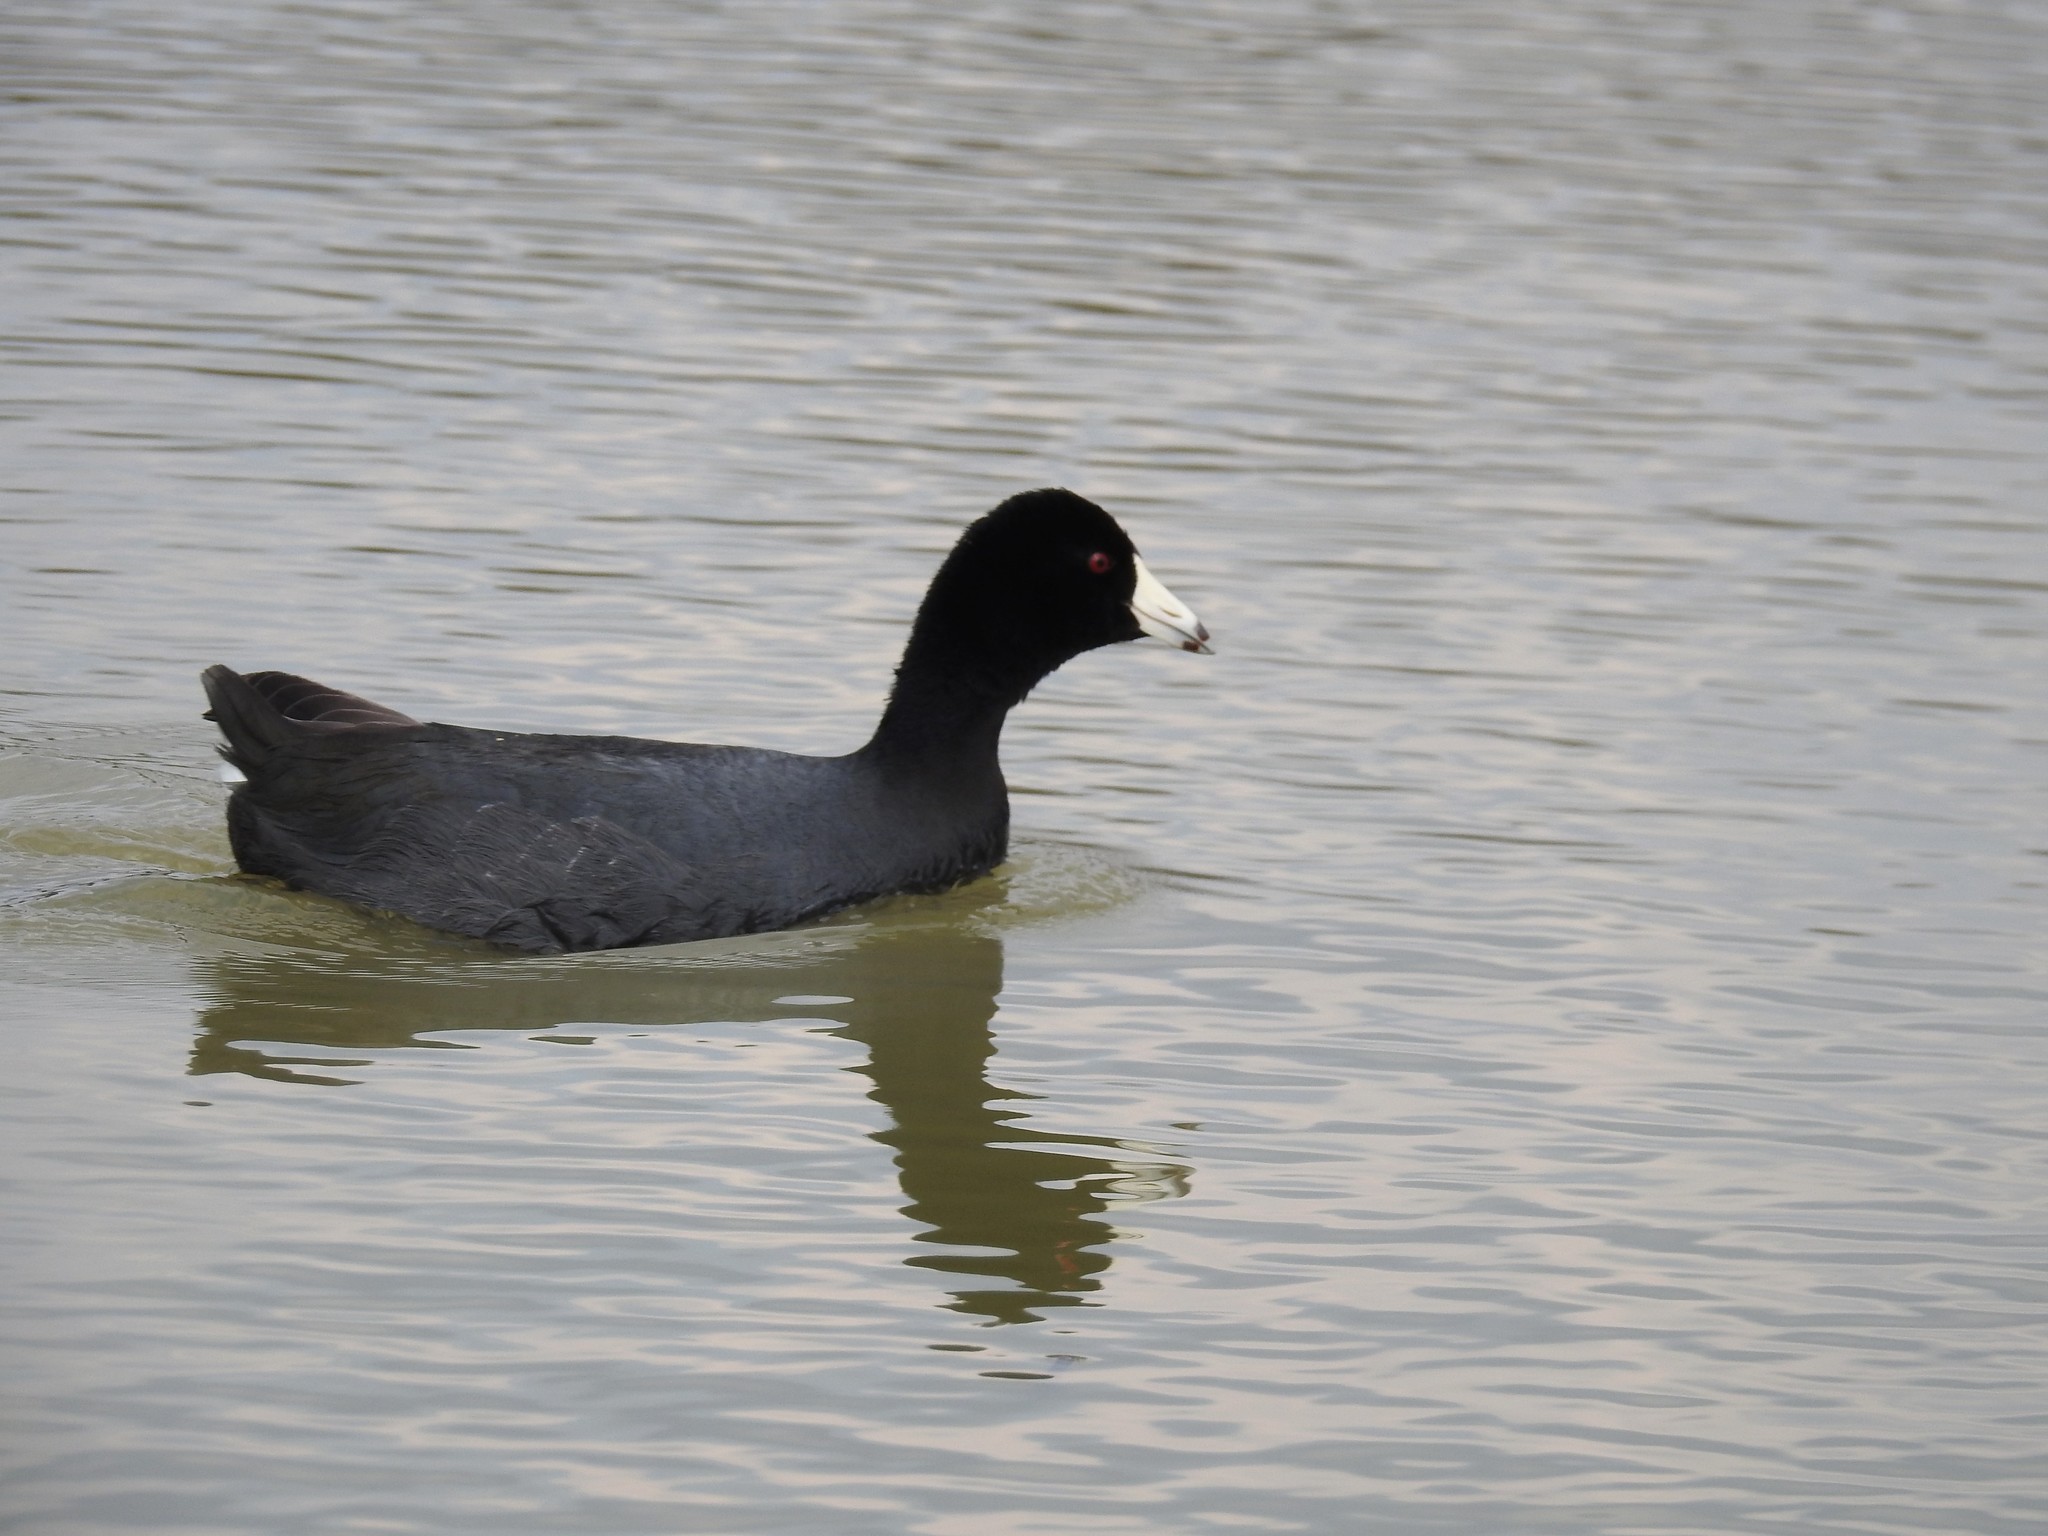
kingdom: Animalia
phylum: Chordata
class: Aves
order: Gruiformes
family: Rallidae
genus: Fulica
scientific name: Fulica americana
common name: American coot
